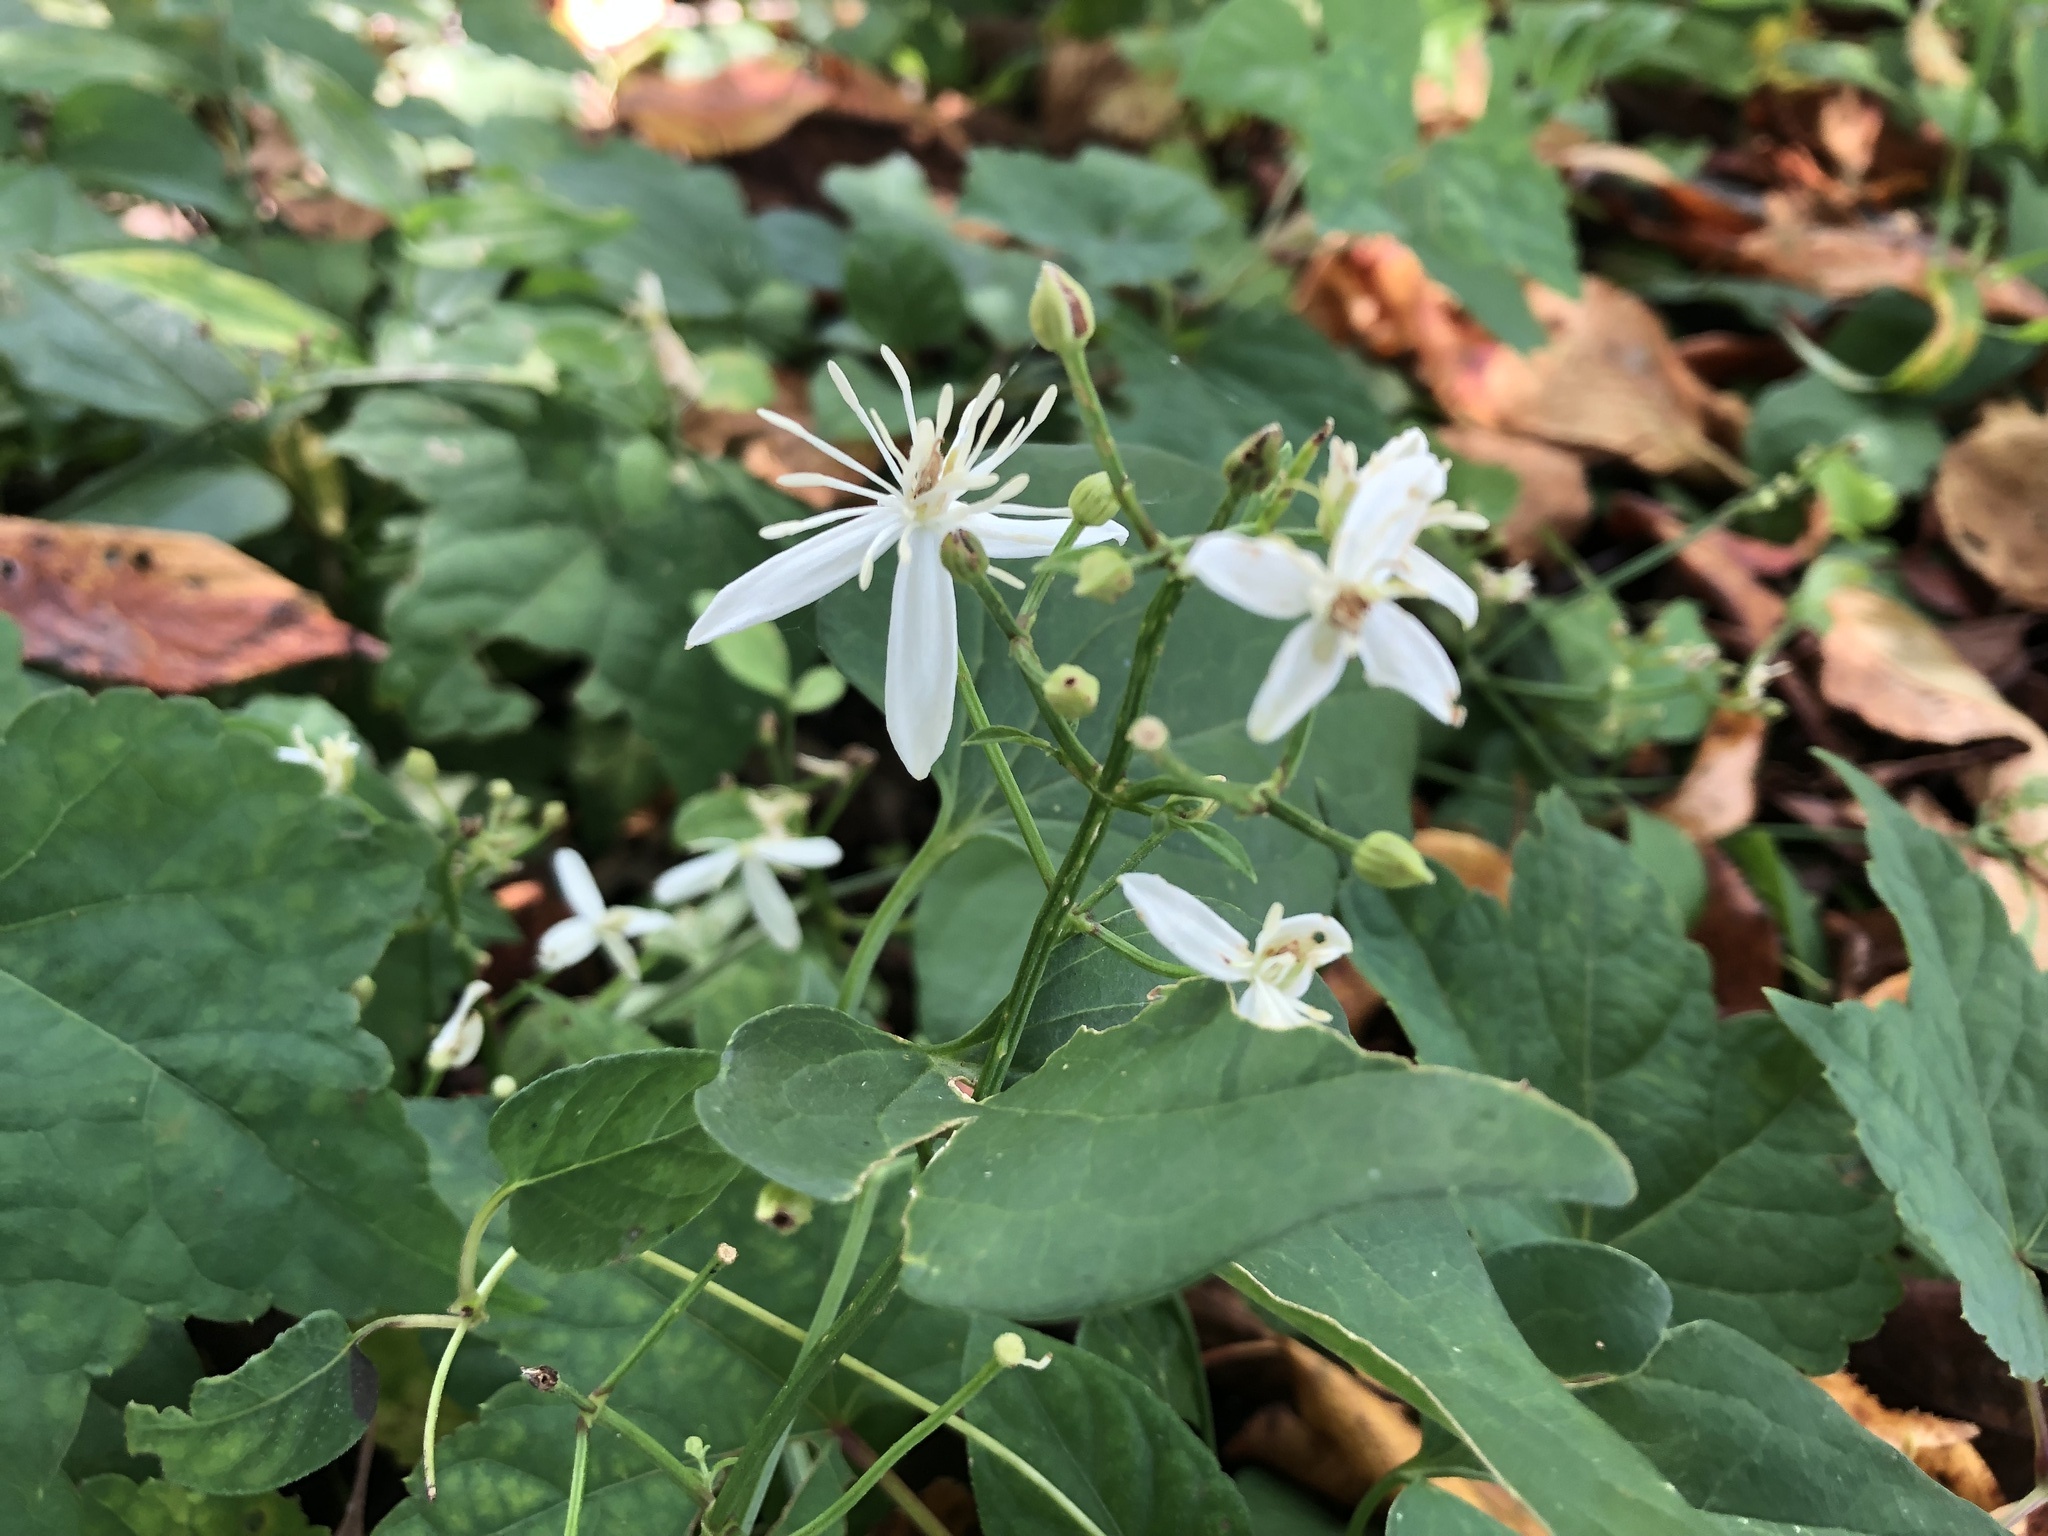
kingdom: Plantae
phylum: Tracheophyta
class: Magnoliopsida
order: Ranunculales
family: Ranunculaceae
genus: Clematis
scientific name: Clematis terniflora
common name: Sweet autumn clematis
